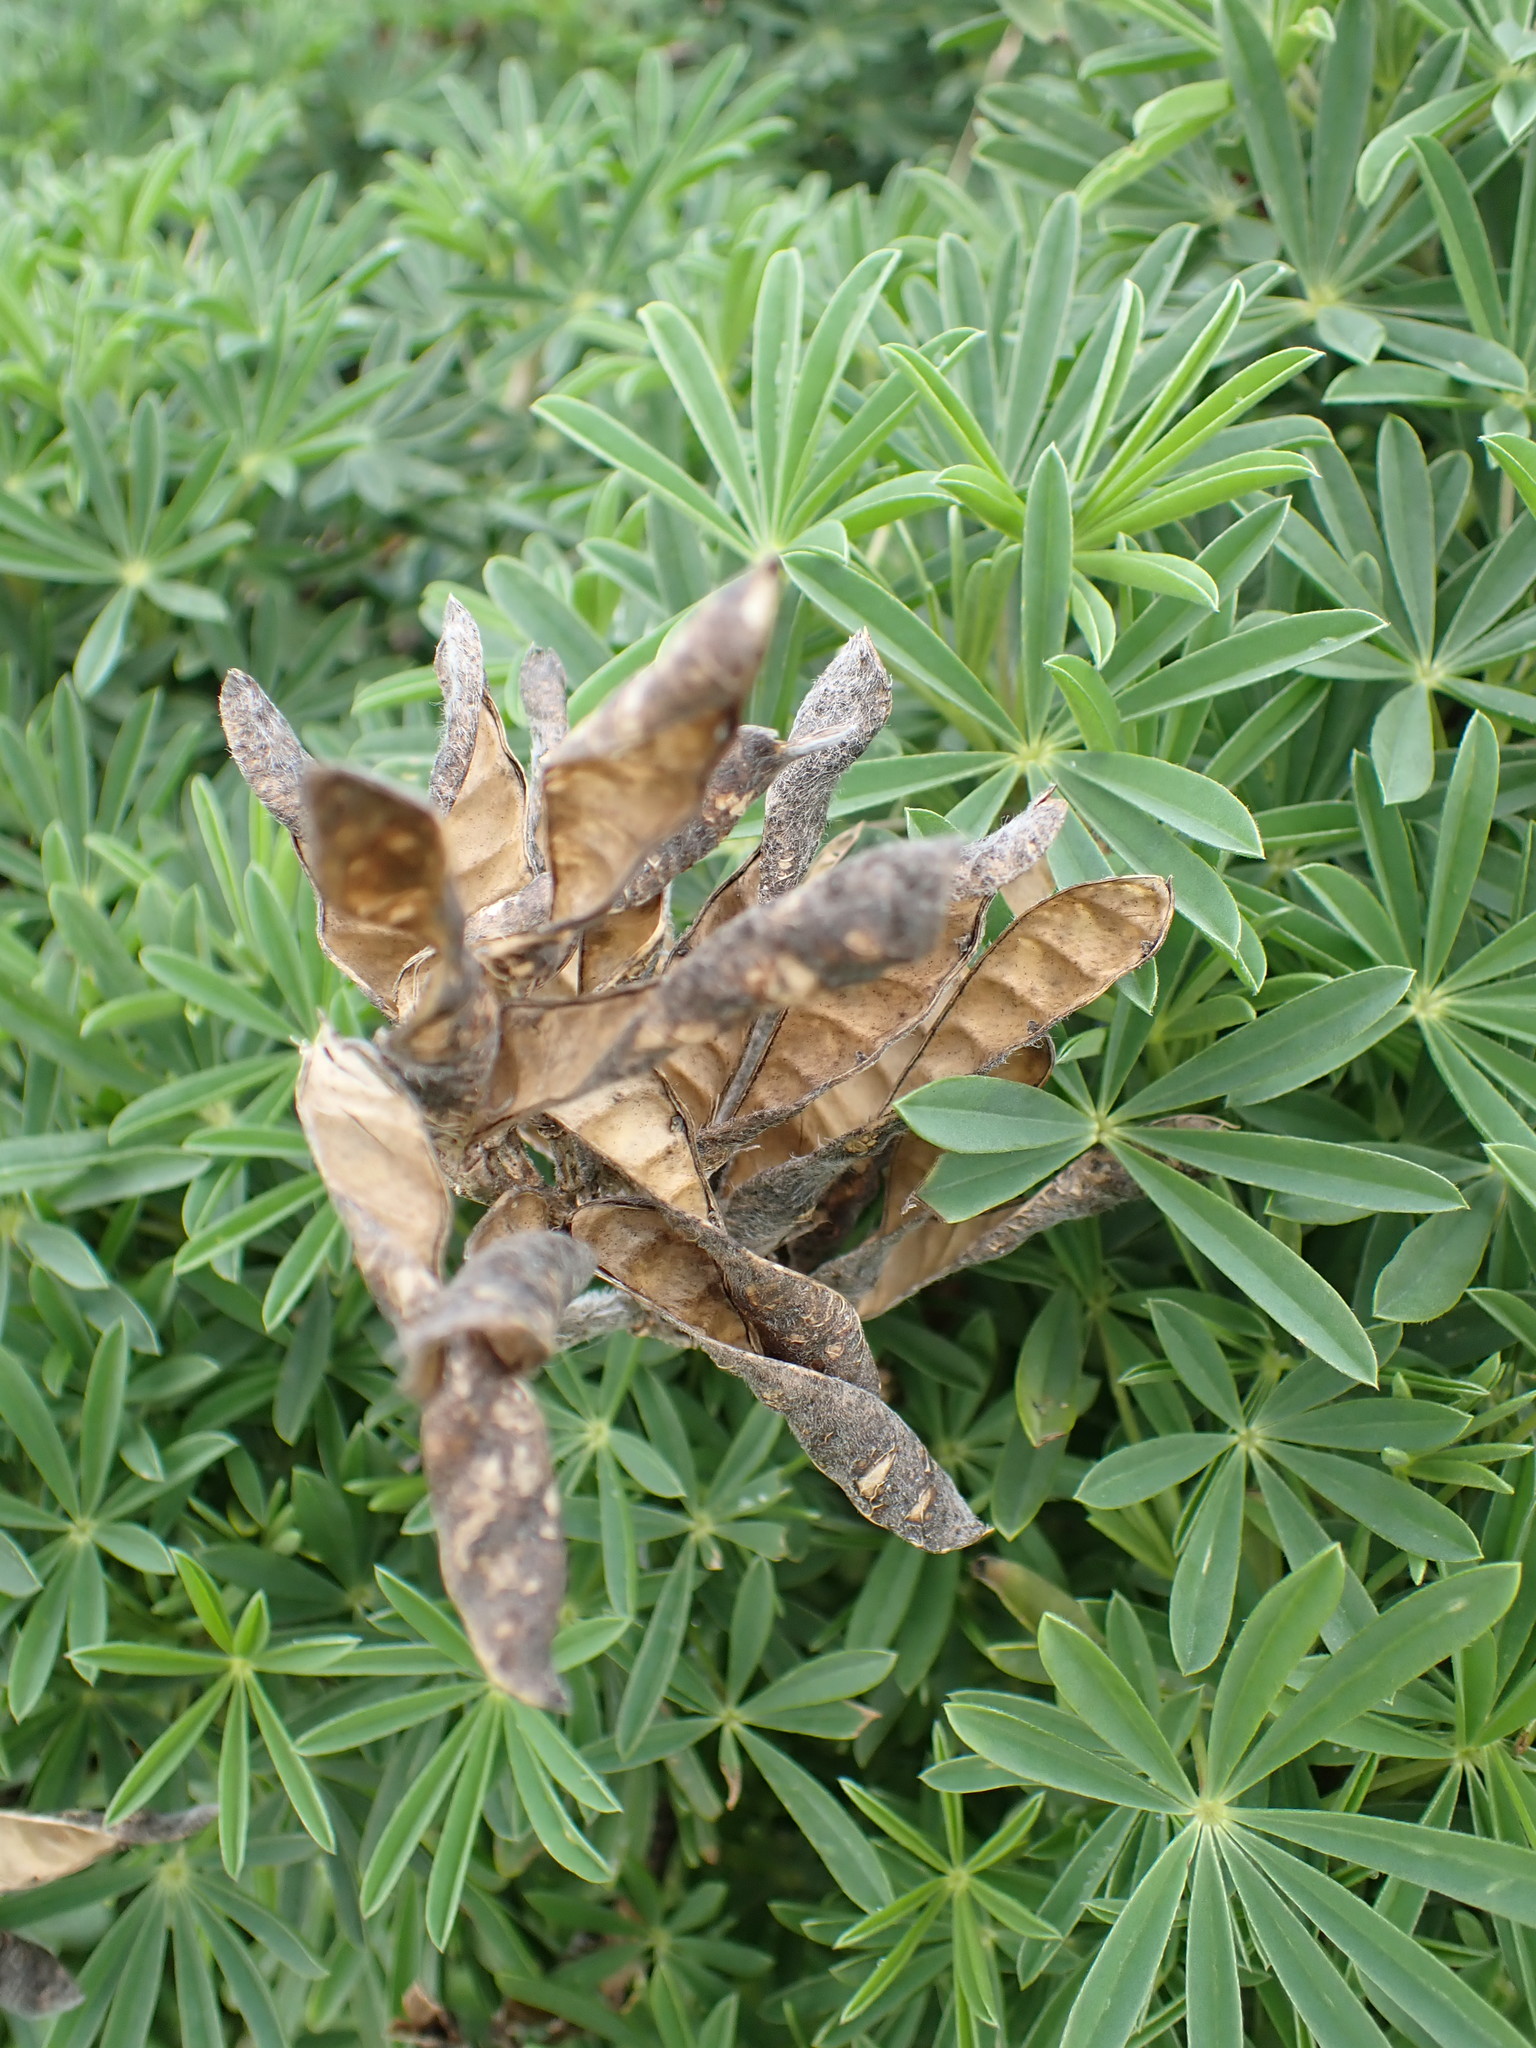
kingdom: Plantae
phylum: Tracheophyta
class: Magnoliopsida
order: Fabales
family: Fabaceae
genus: Lupinus
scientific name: Lupinus arboreus
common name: Yellow bush lupine
